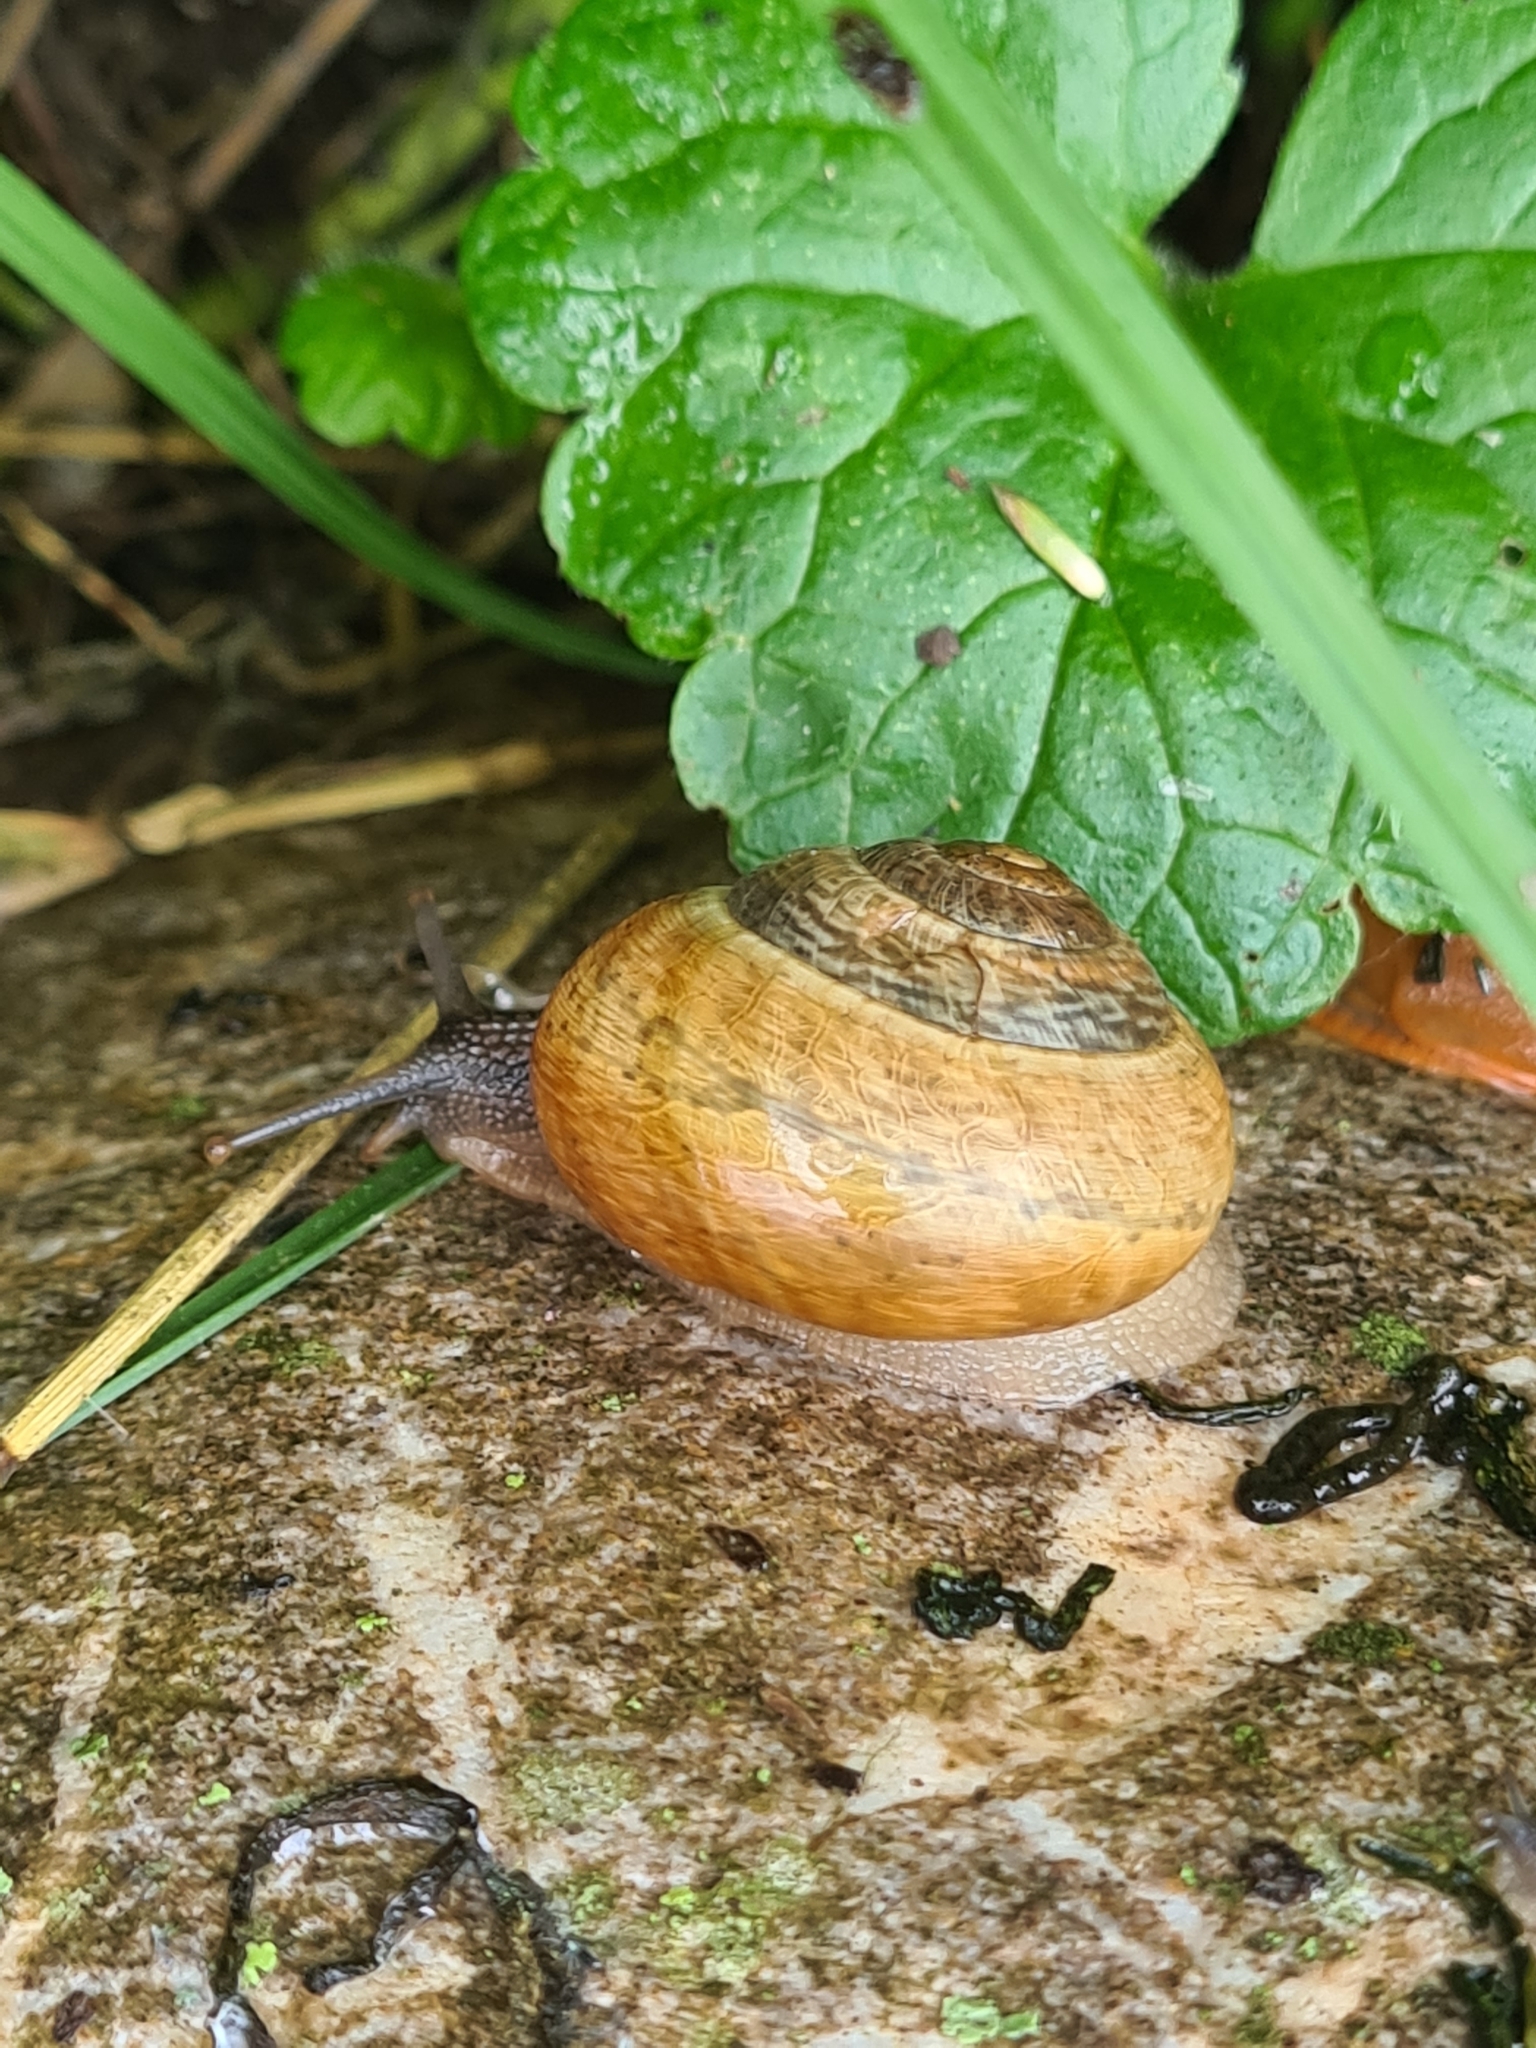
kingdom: Animalia
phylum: Mollusca
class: Gastropoda
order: Stylommatophora
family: Helicidae
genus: Arianta
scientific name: Arianta arbustorum
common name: Copse snail
